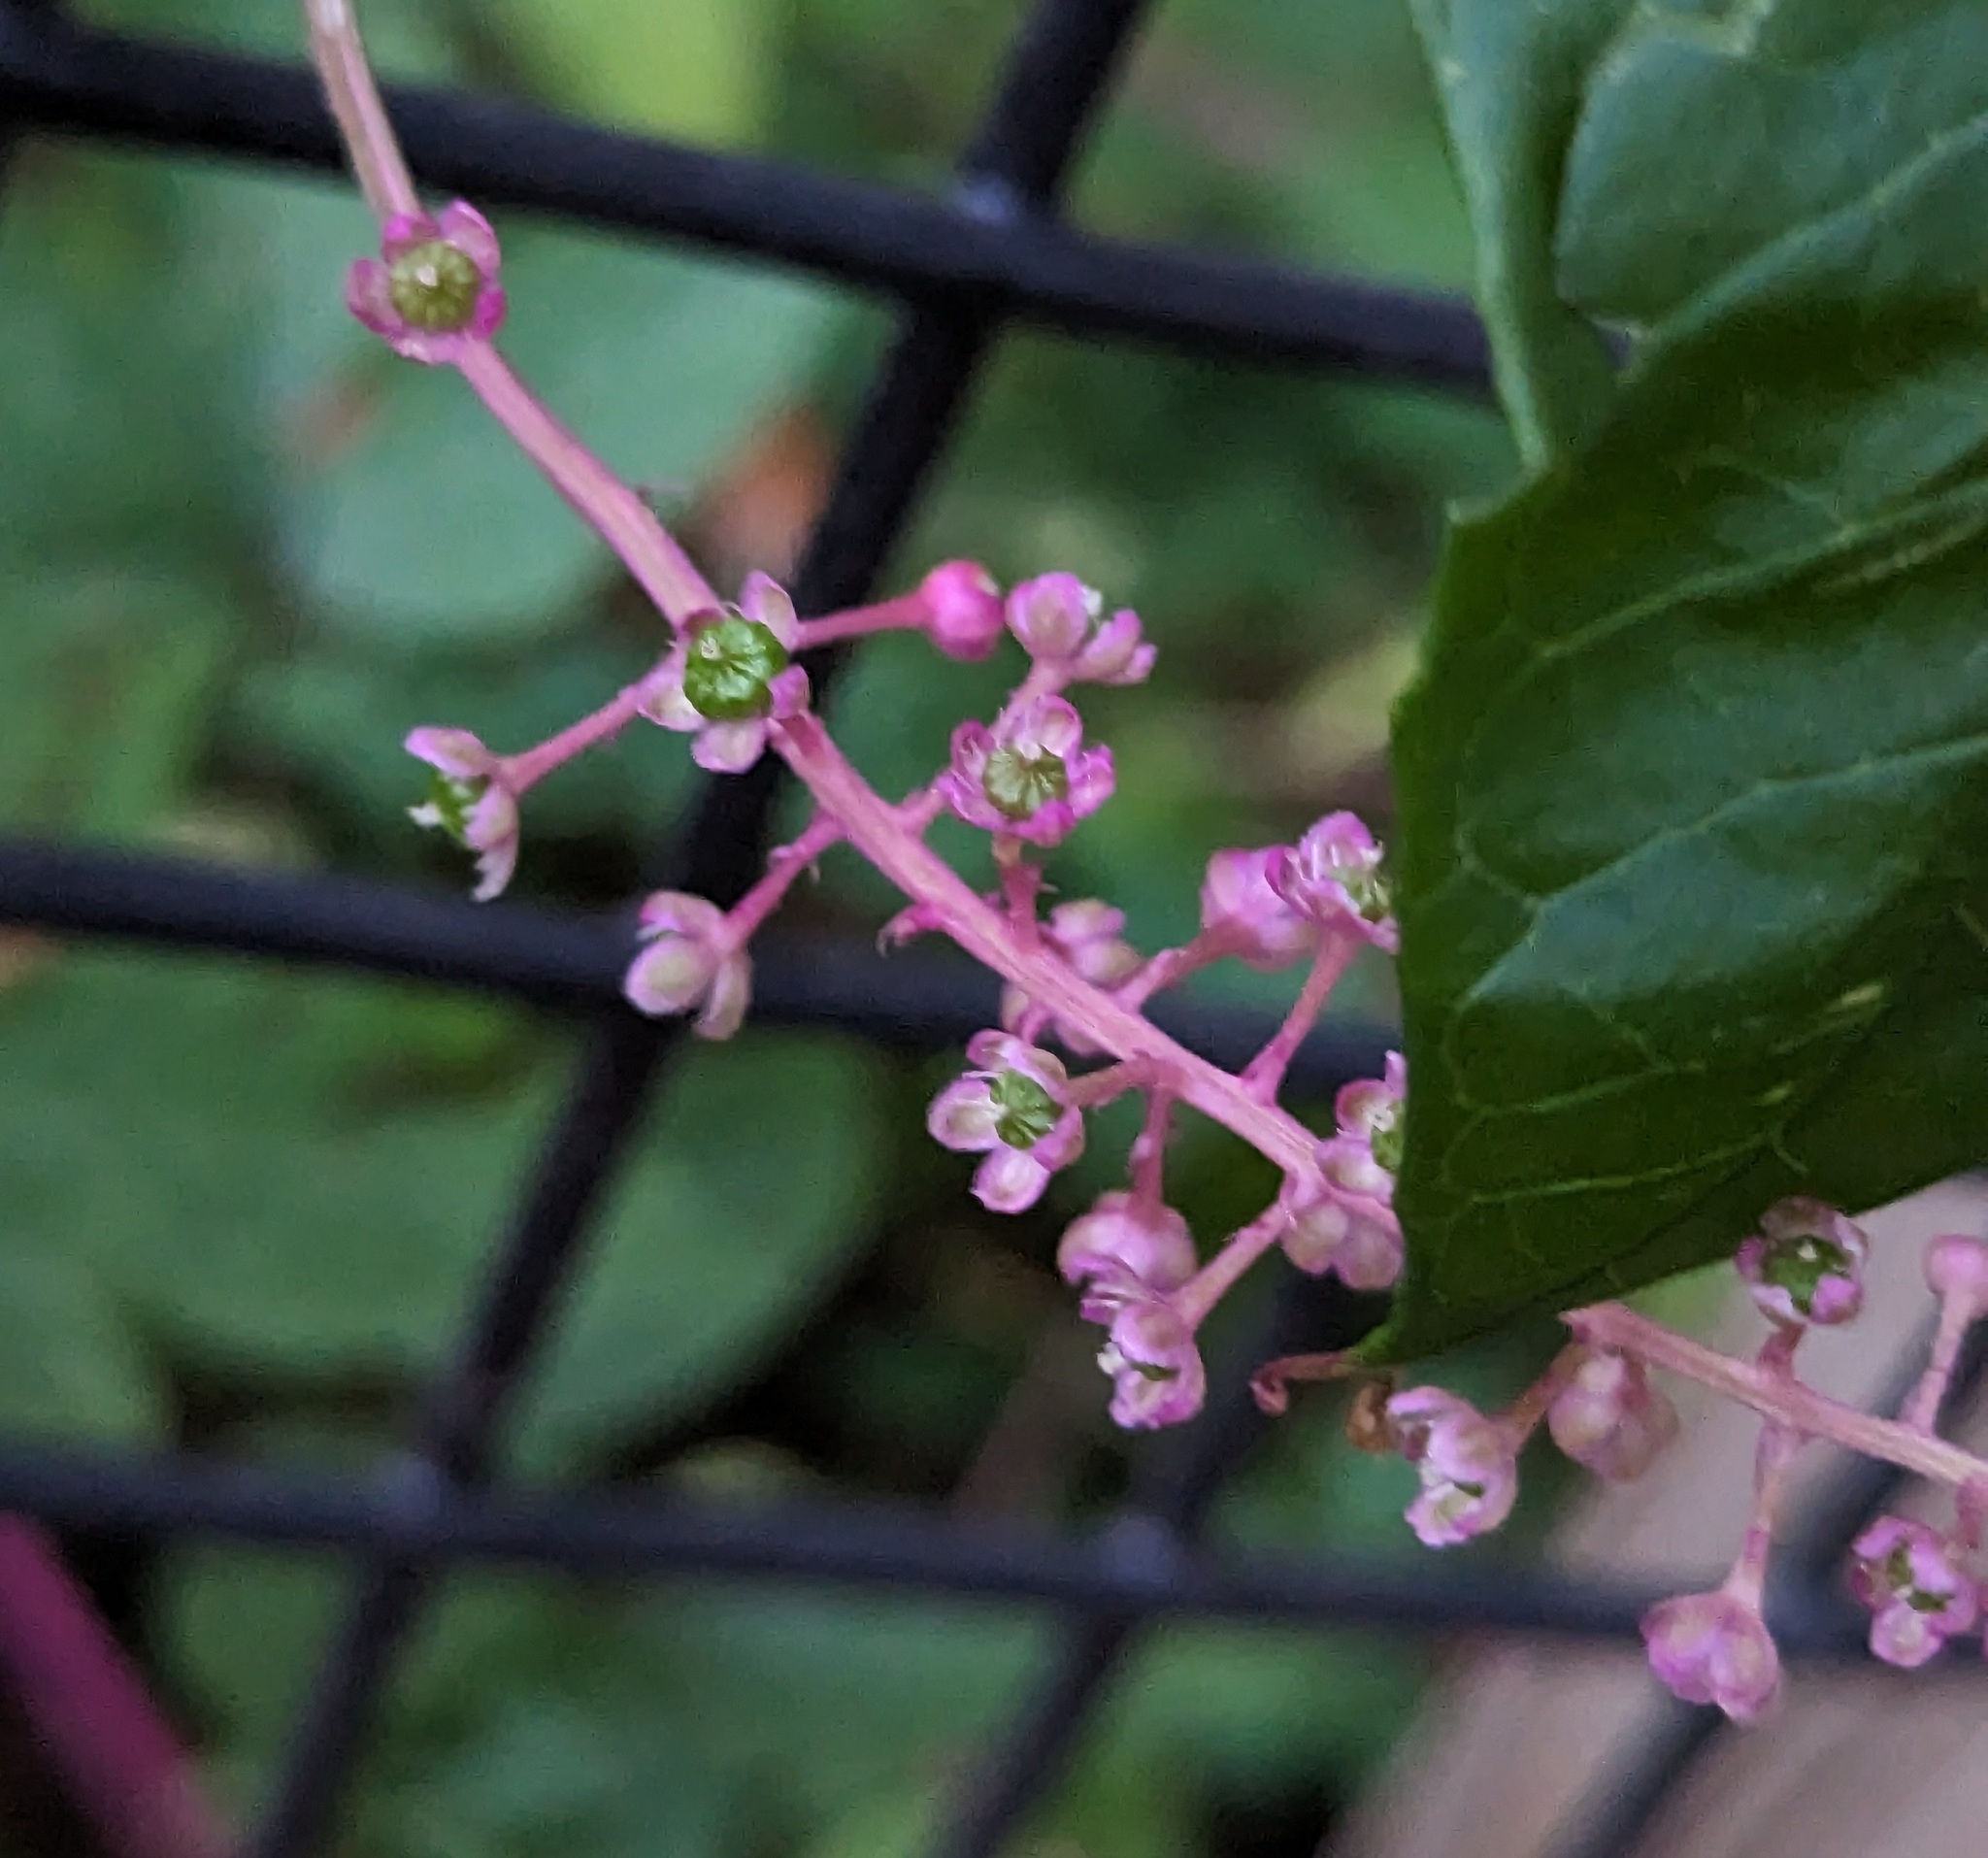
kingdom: Plantae
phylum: Tracheophyta
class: Magnoliopsida
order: Caryophyllales
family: Phytolaccaceae
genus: Phytolacca
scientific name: Phytolacca americana
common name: American pokeweed
